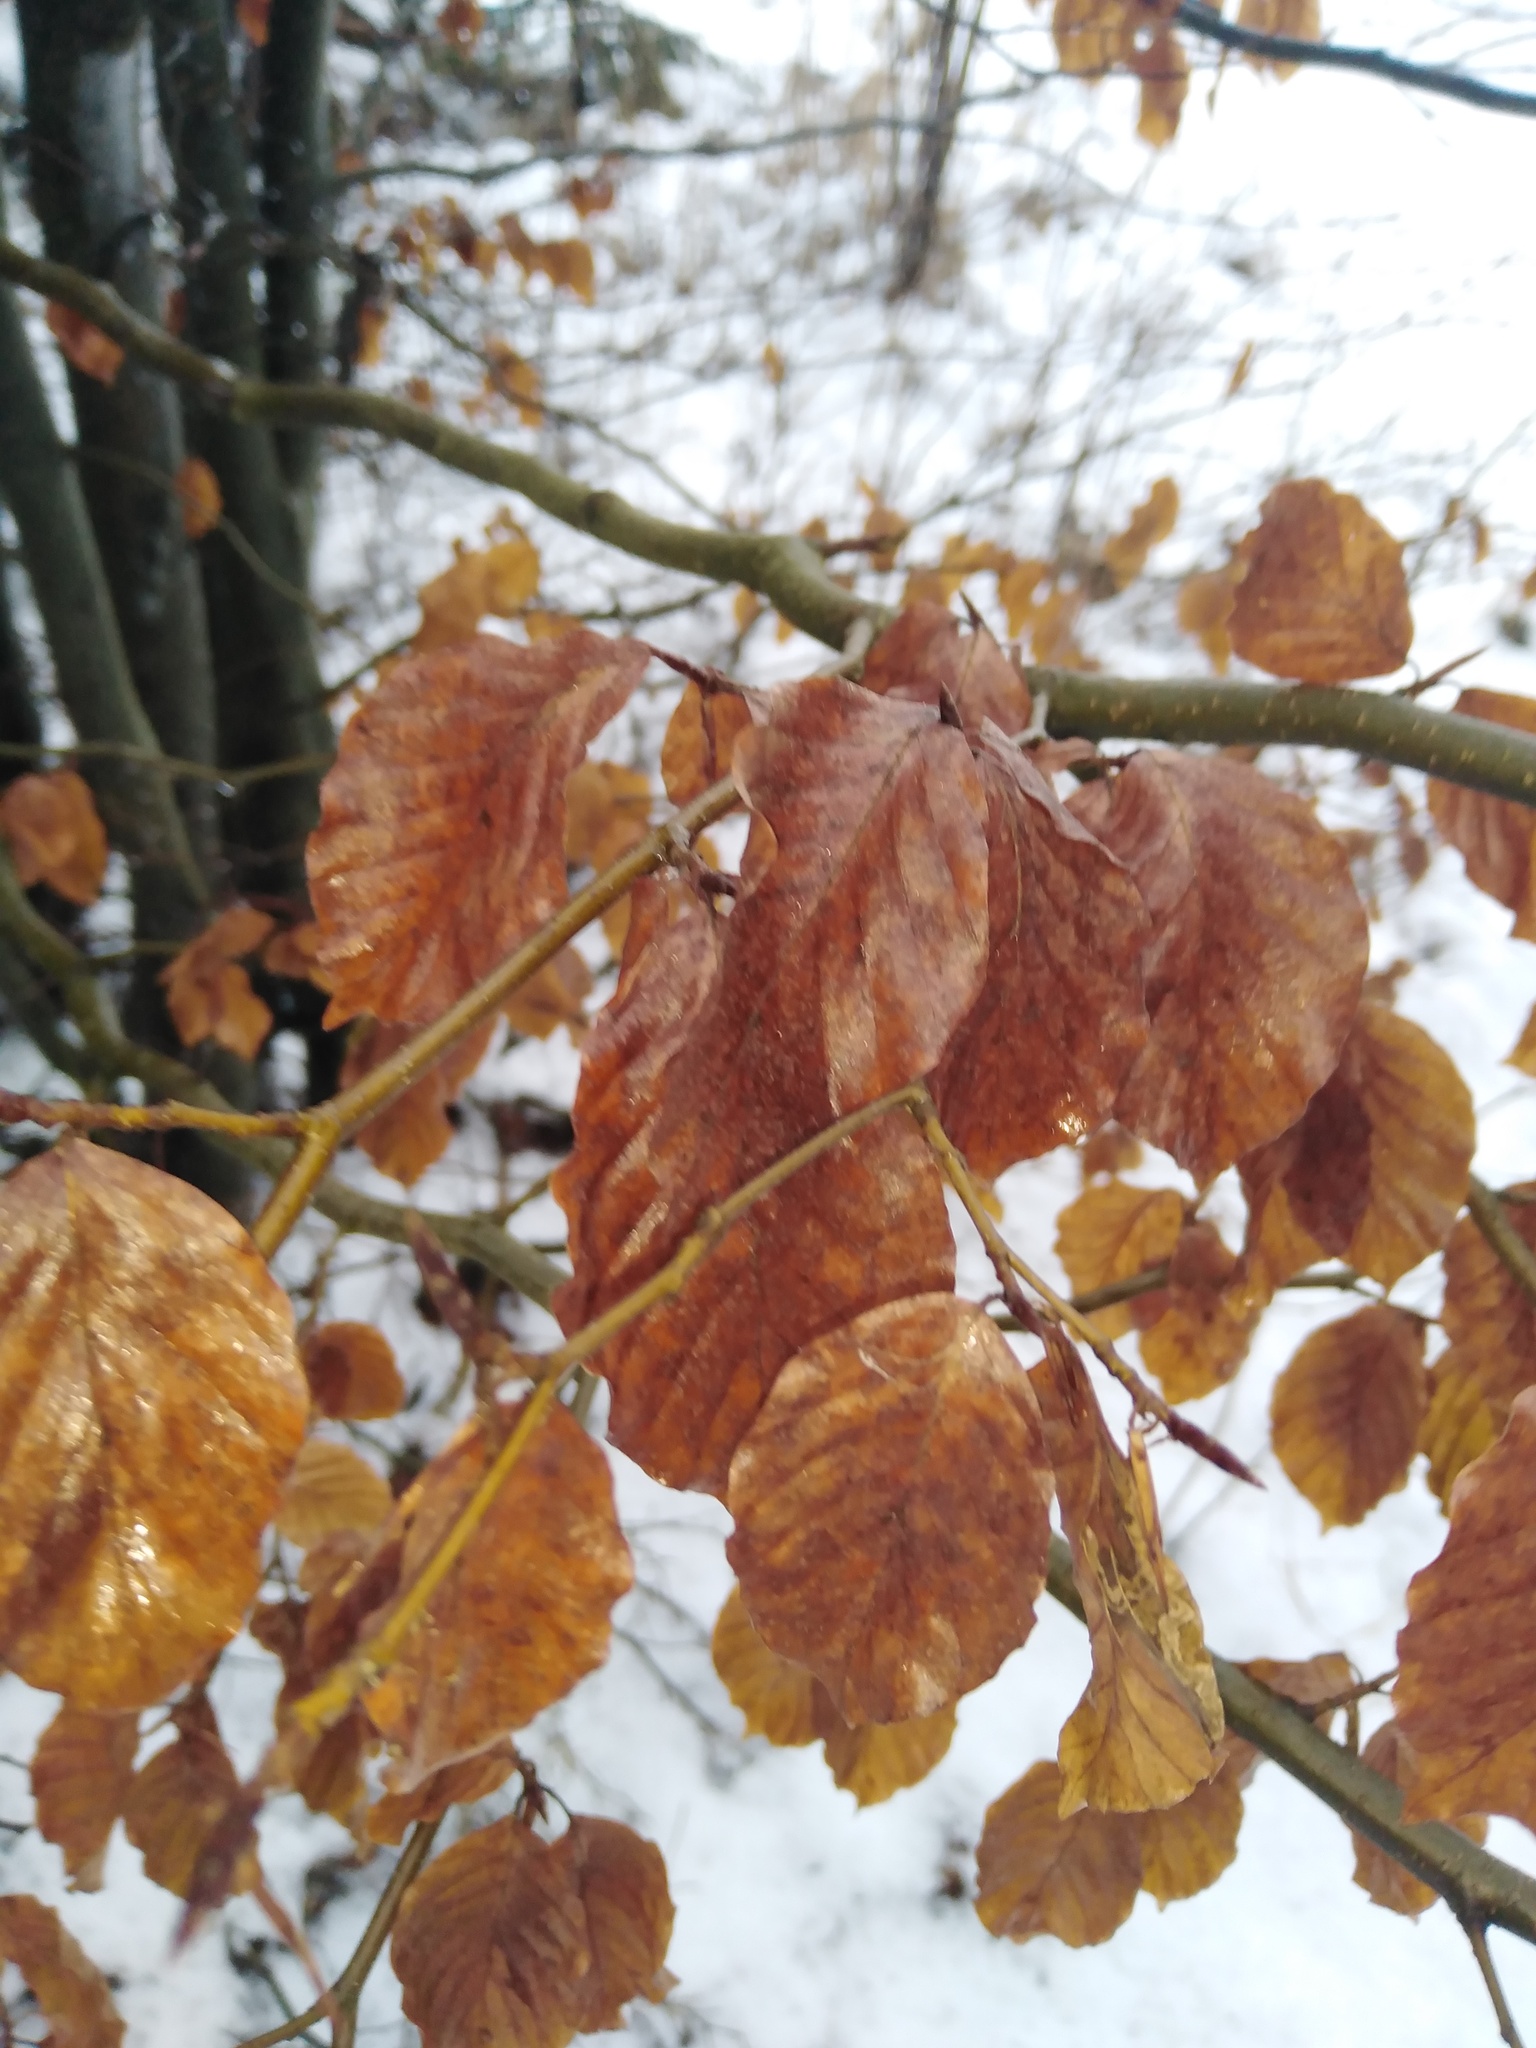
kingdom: Plantae
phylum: Tracheophyta
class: Magnoliopsida
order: Fagales
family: Fagaceae
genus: Fagus
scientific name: Fagus sylvatica
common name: Beech
